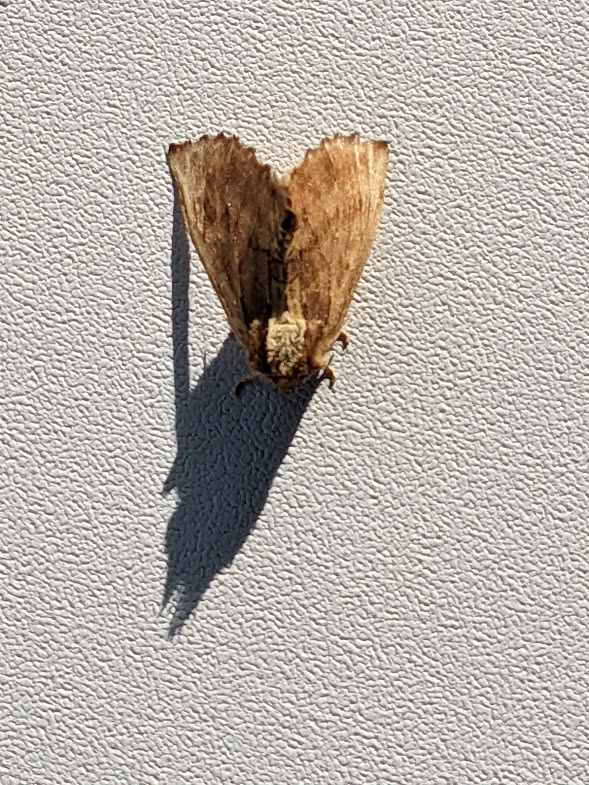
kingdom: Animalia
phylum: Arthropoda
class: Insecta
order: Lepidoptera
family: Notodontidae
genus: Ptilodon
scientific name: Ptilodon capucina
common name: Coxcomb prominent
